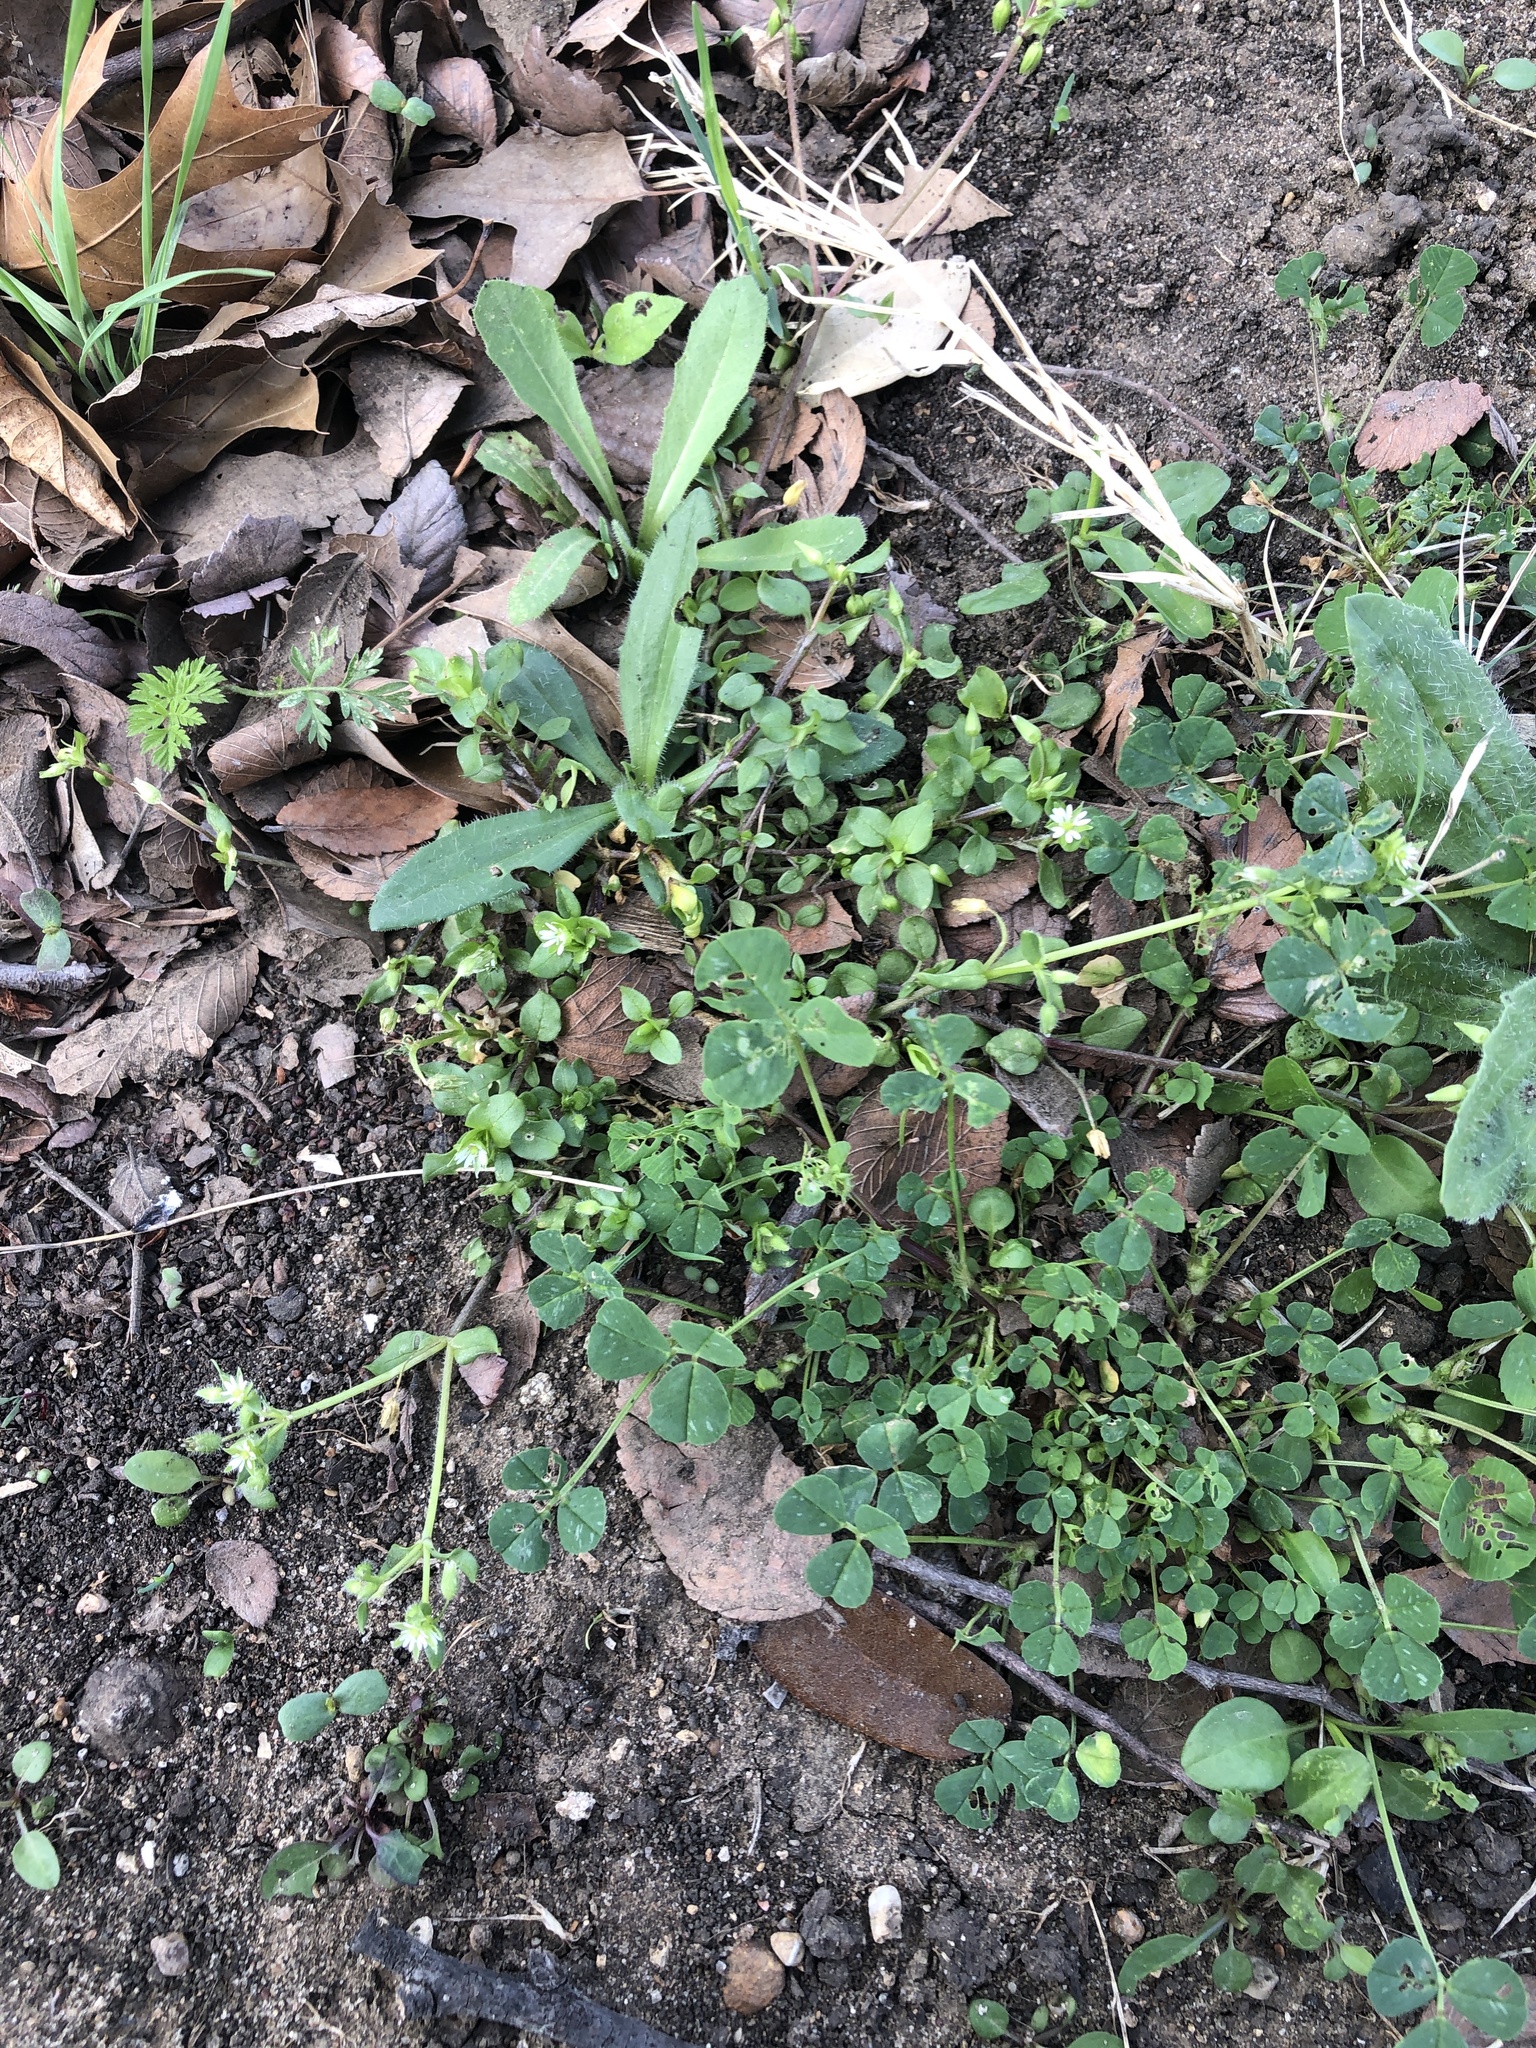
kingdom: Plantae
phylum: Tracheophyta
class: Magnoliopsida
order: Caryophyllales
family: Caryophyllaceae
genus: Stellaria
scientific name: Stellaria media
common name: Common chickweed
